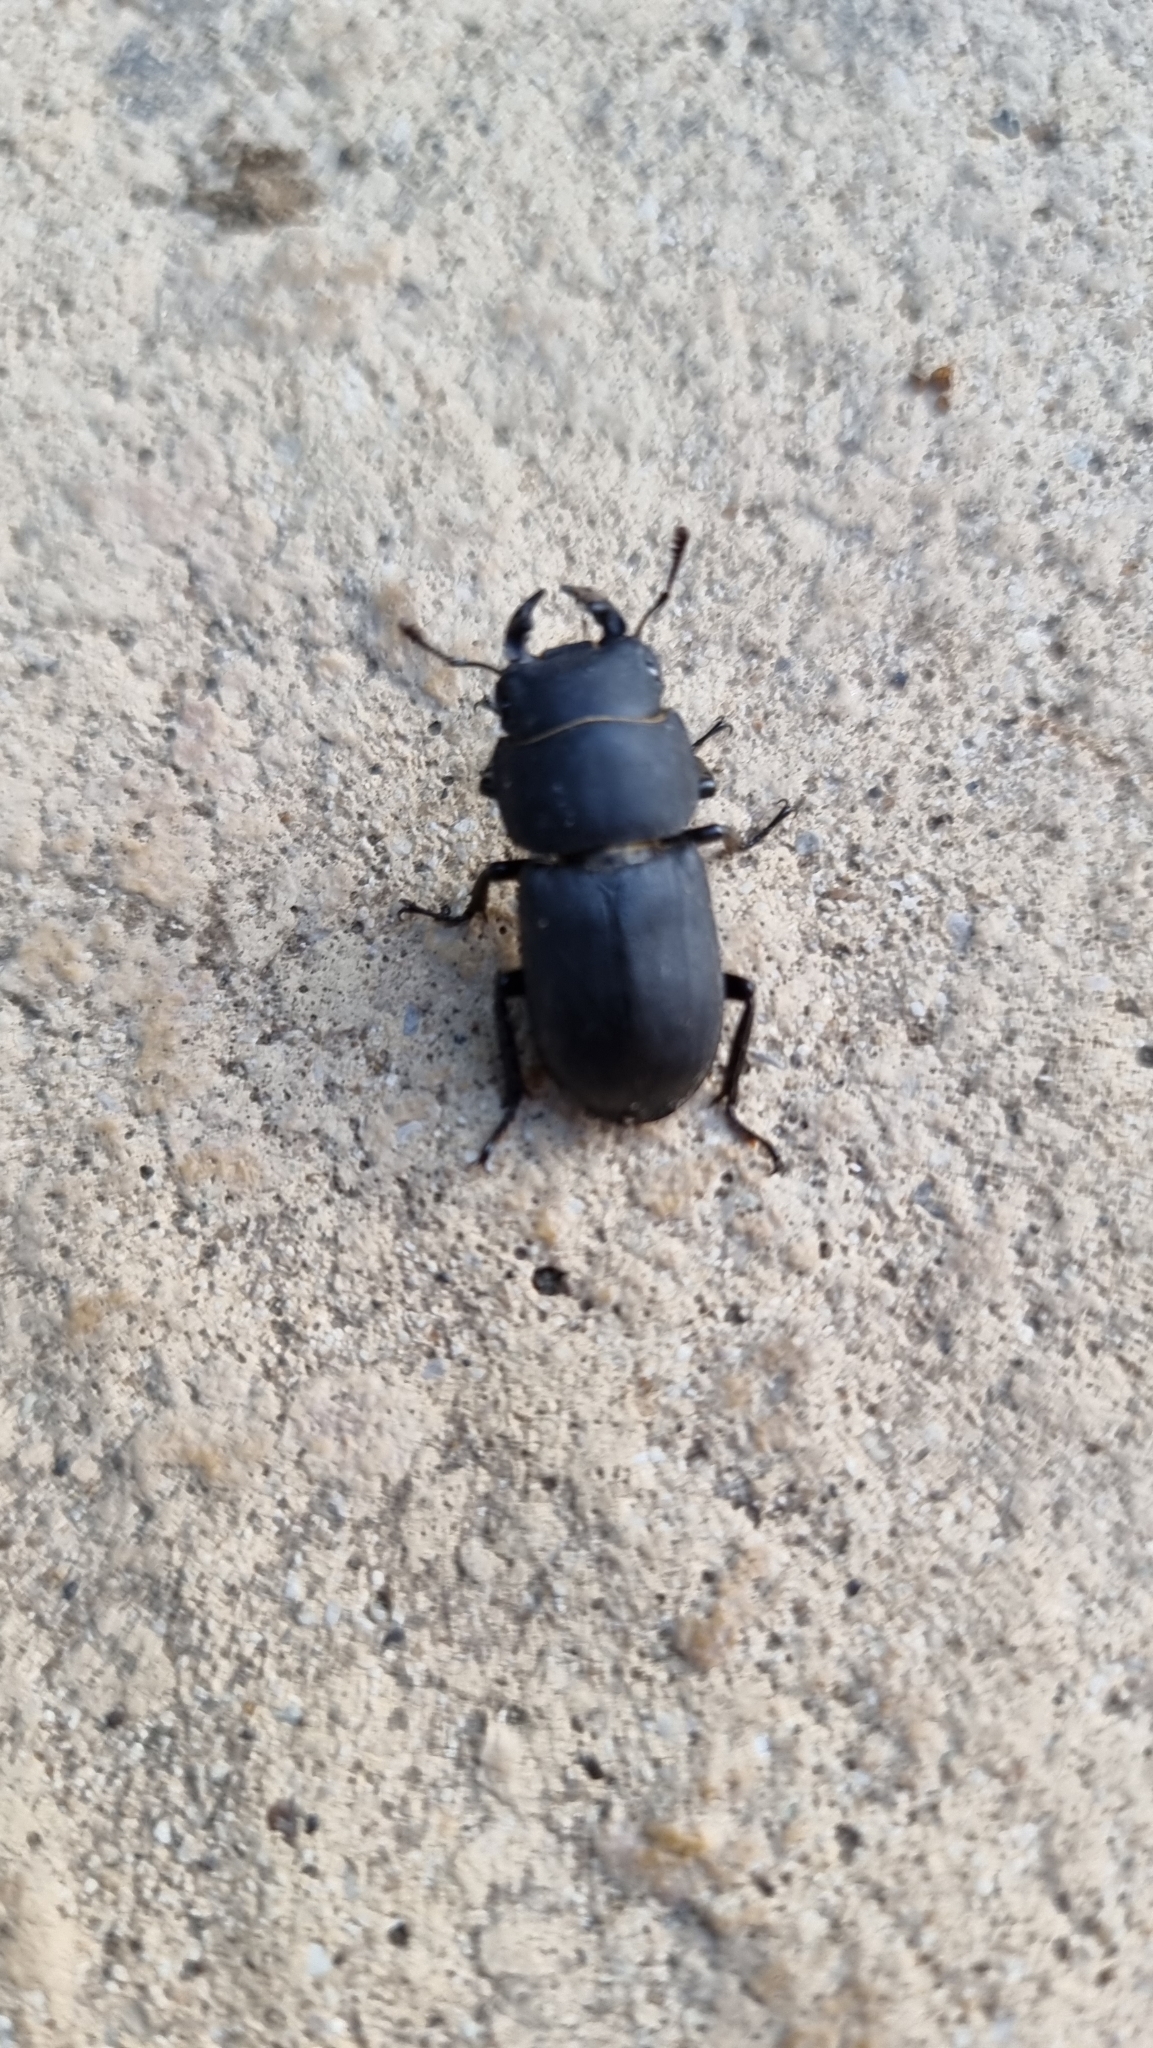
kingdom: Animalia
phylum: Arthropoda
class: Insecta
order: Coleoptera
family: Lucanidae
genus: Dorcus
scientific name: Dorcus parallelipipedus
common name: Lesser stag beetle
